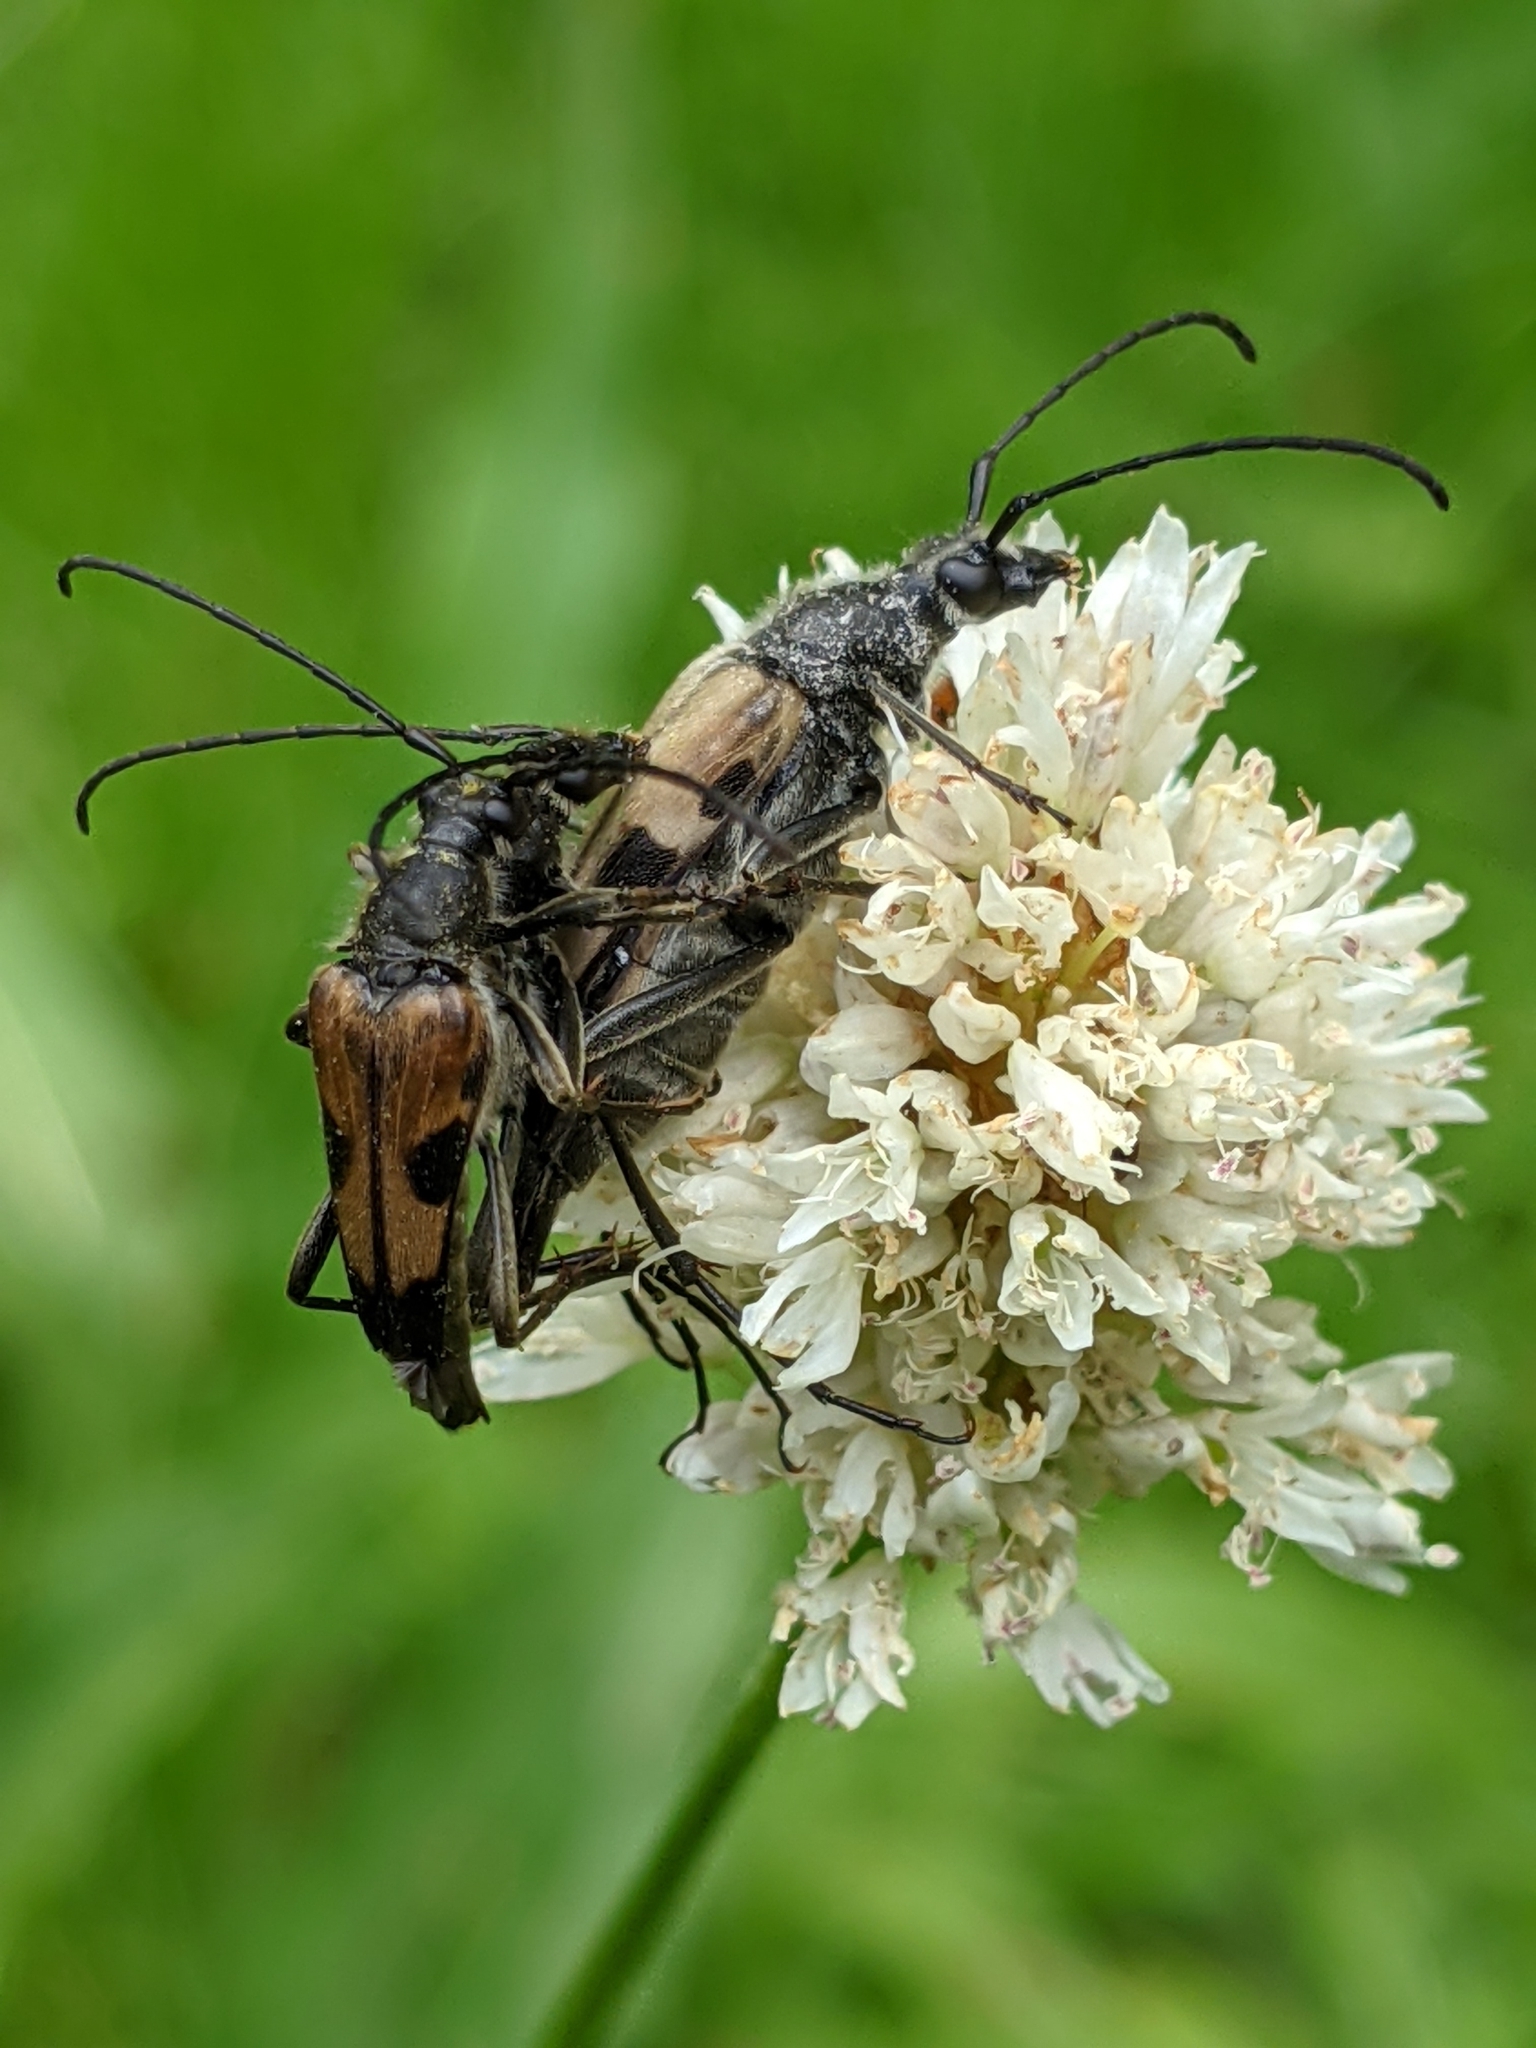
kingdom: Animalia
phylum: Arthropoda
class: Insecta
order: Coleoptera
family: Cerambycidae
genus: Etorofus
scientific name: Etorofus
